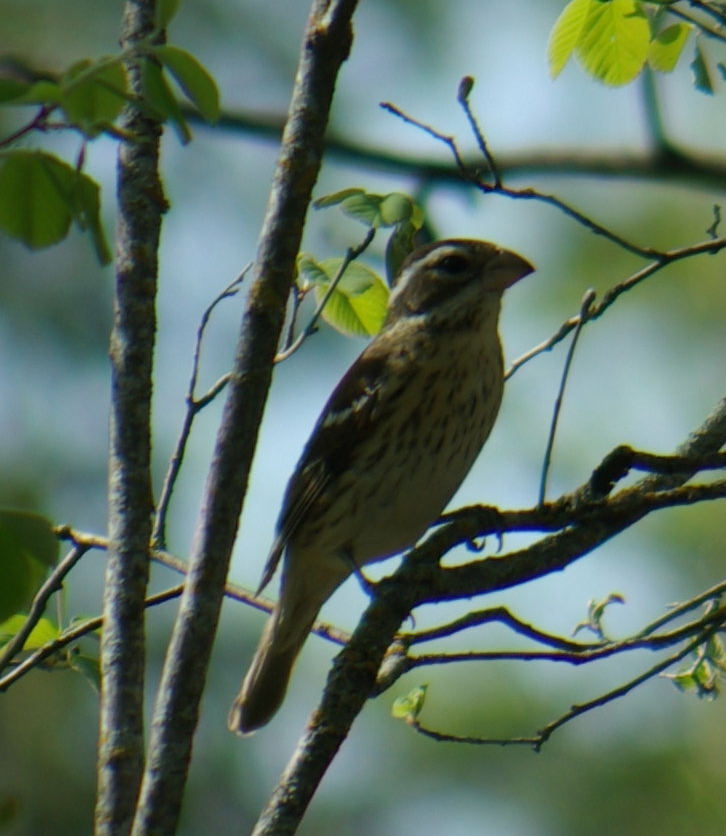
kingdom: Animalia
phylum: Chordata
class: Aves
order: Passeriformes
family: Cardinalidae
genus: Pheucticus
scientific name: Pheucticus ludovicianus
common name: Rose-breasted grosbeak
